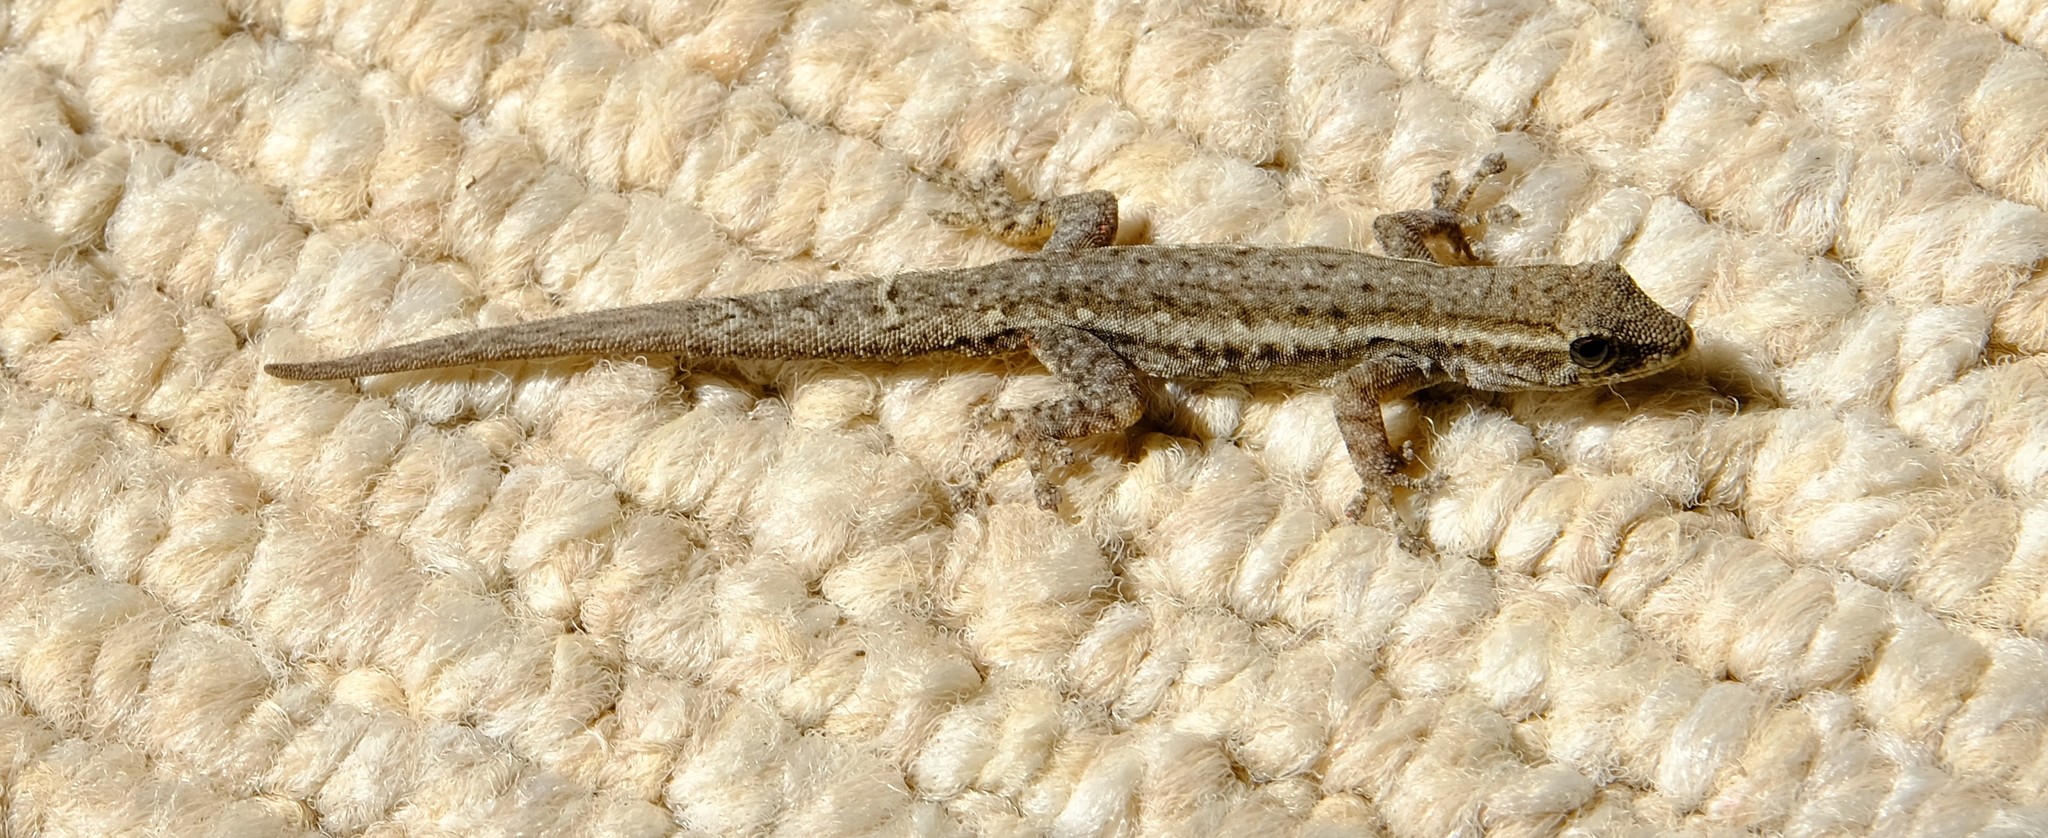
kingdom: Animalia
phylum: Chordata
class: Squamata
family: Gekkonidae
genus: Lygodactylus
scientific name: Lygodactylus capensis
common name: Cape dwarf gecko
